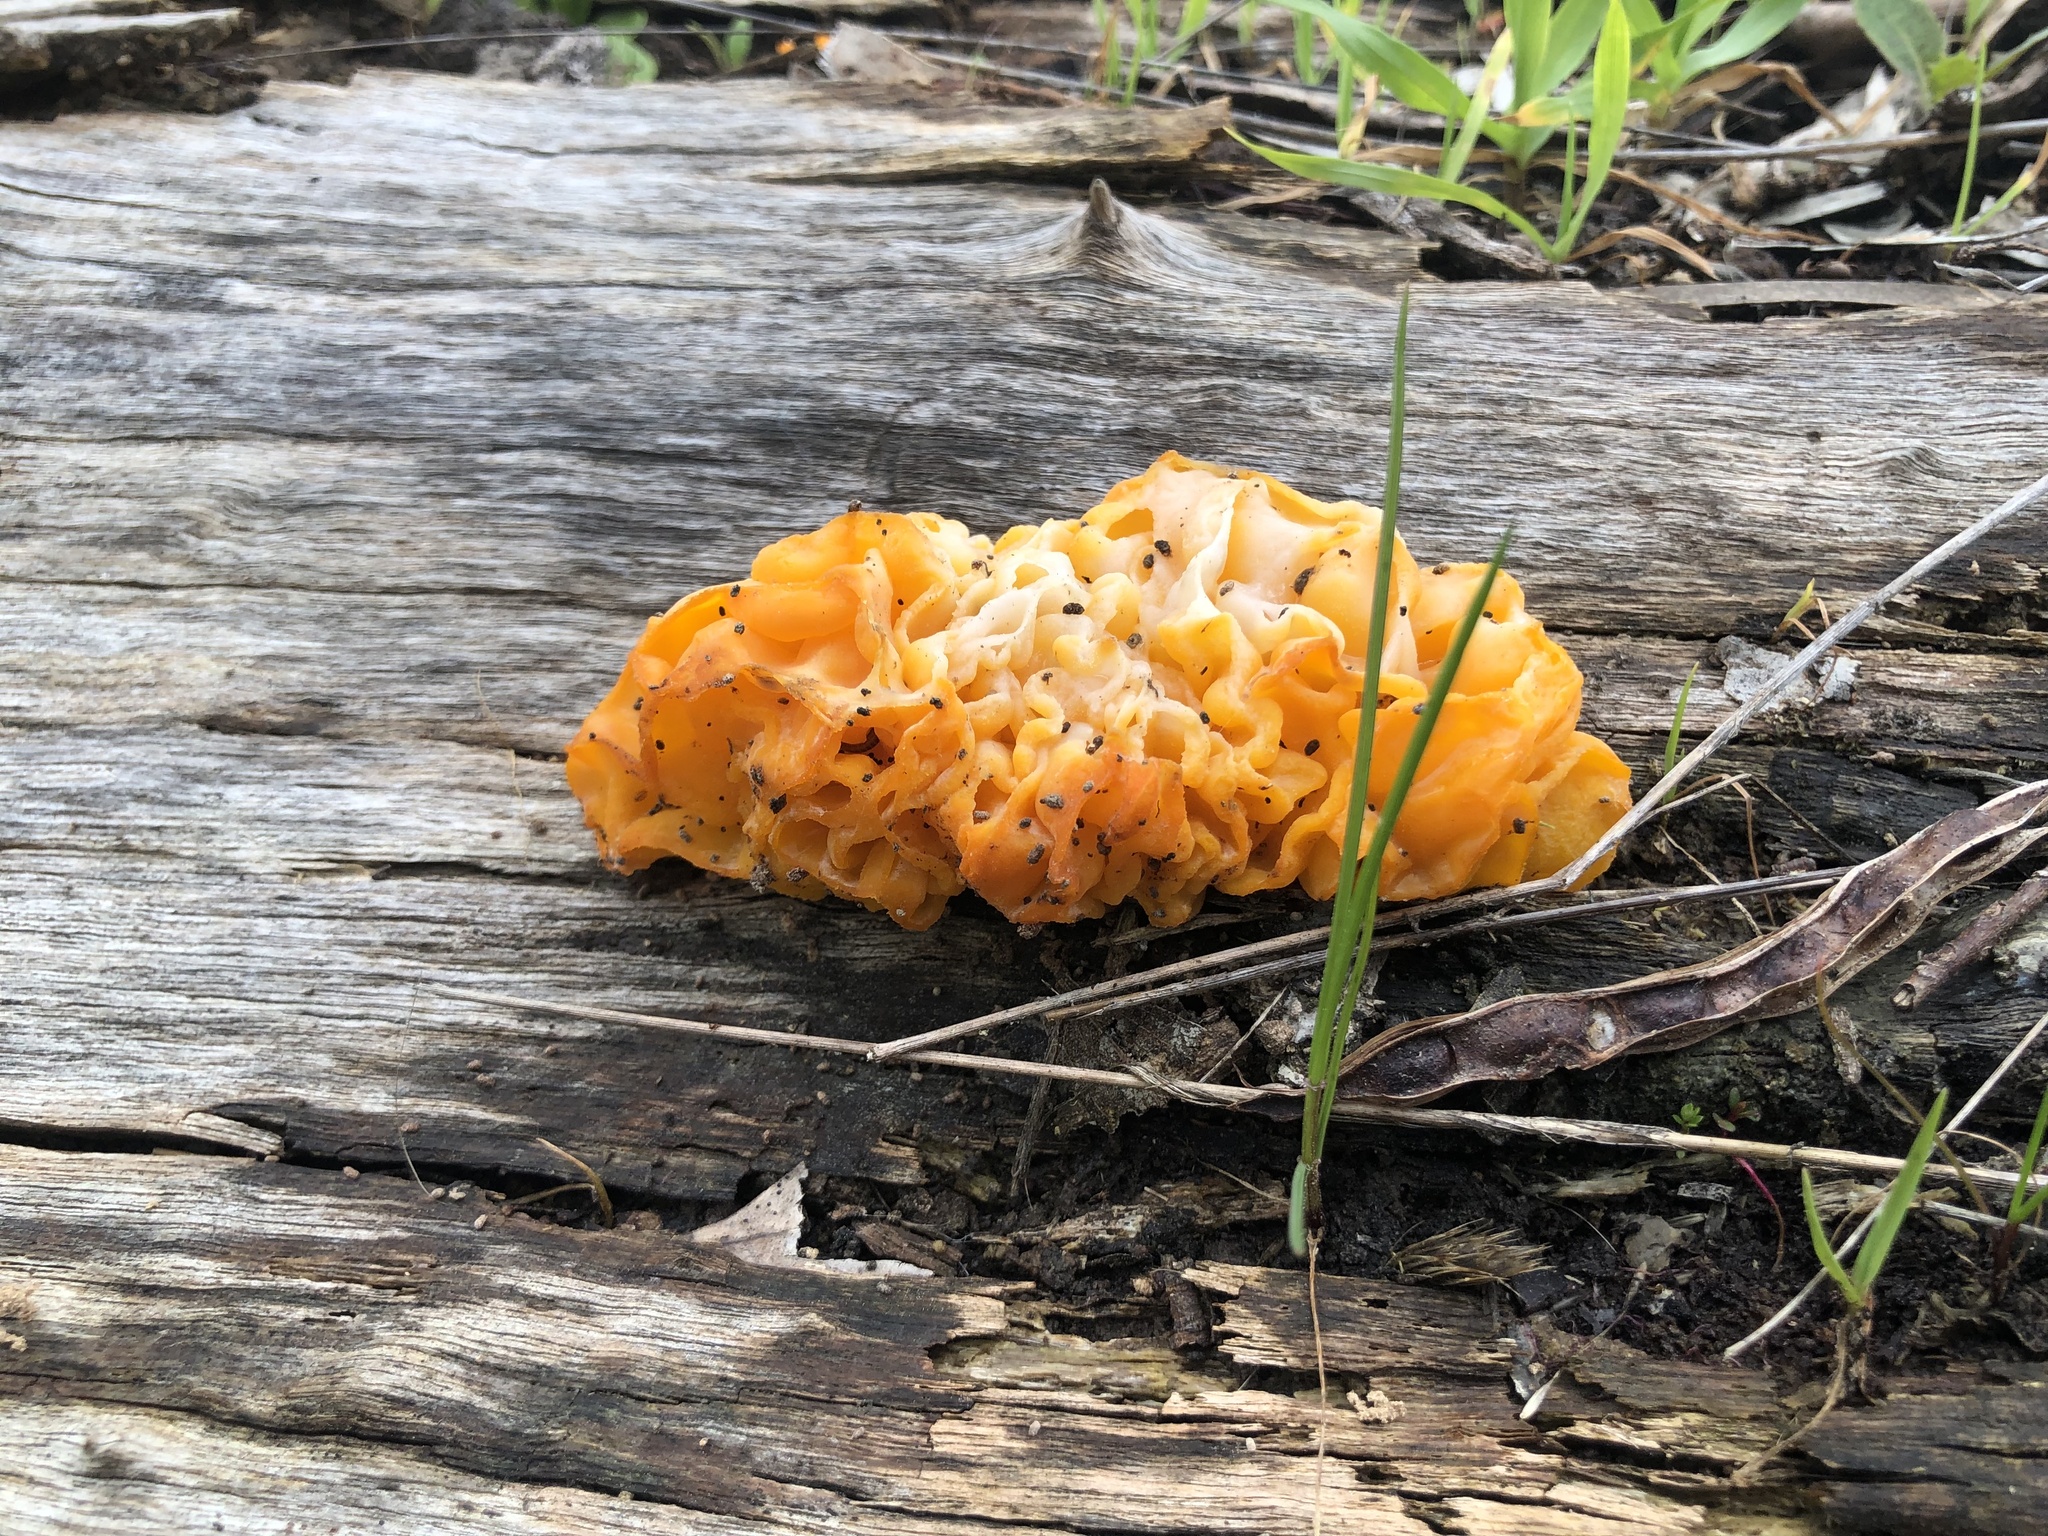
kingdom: Fungi
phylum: Basidiomycota
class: Tremellomycetes
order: Tremellales
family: Tremellaceae
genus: Tremella
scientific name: Tremella mesenterica
